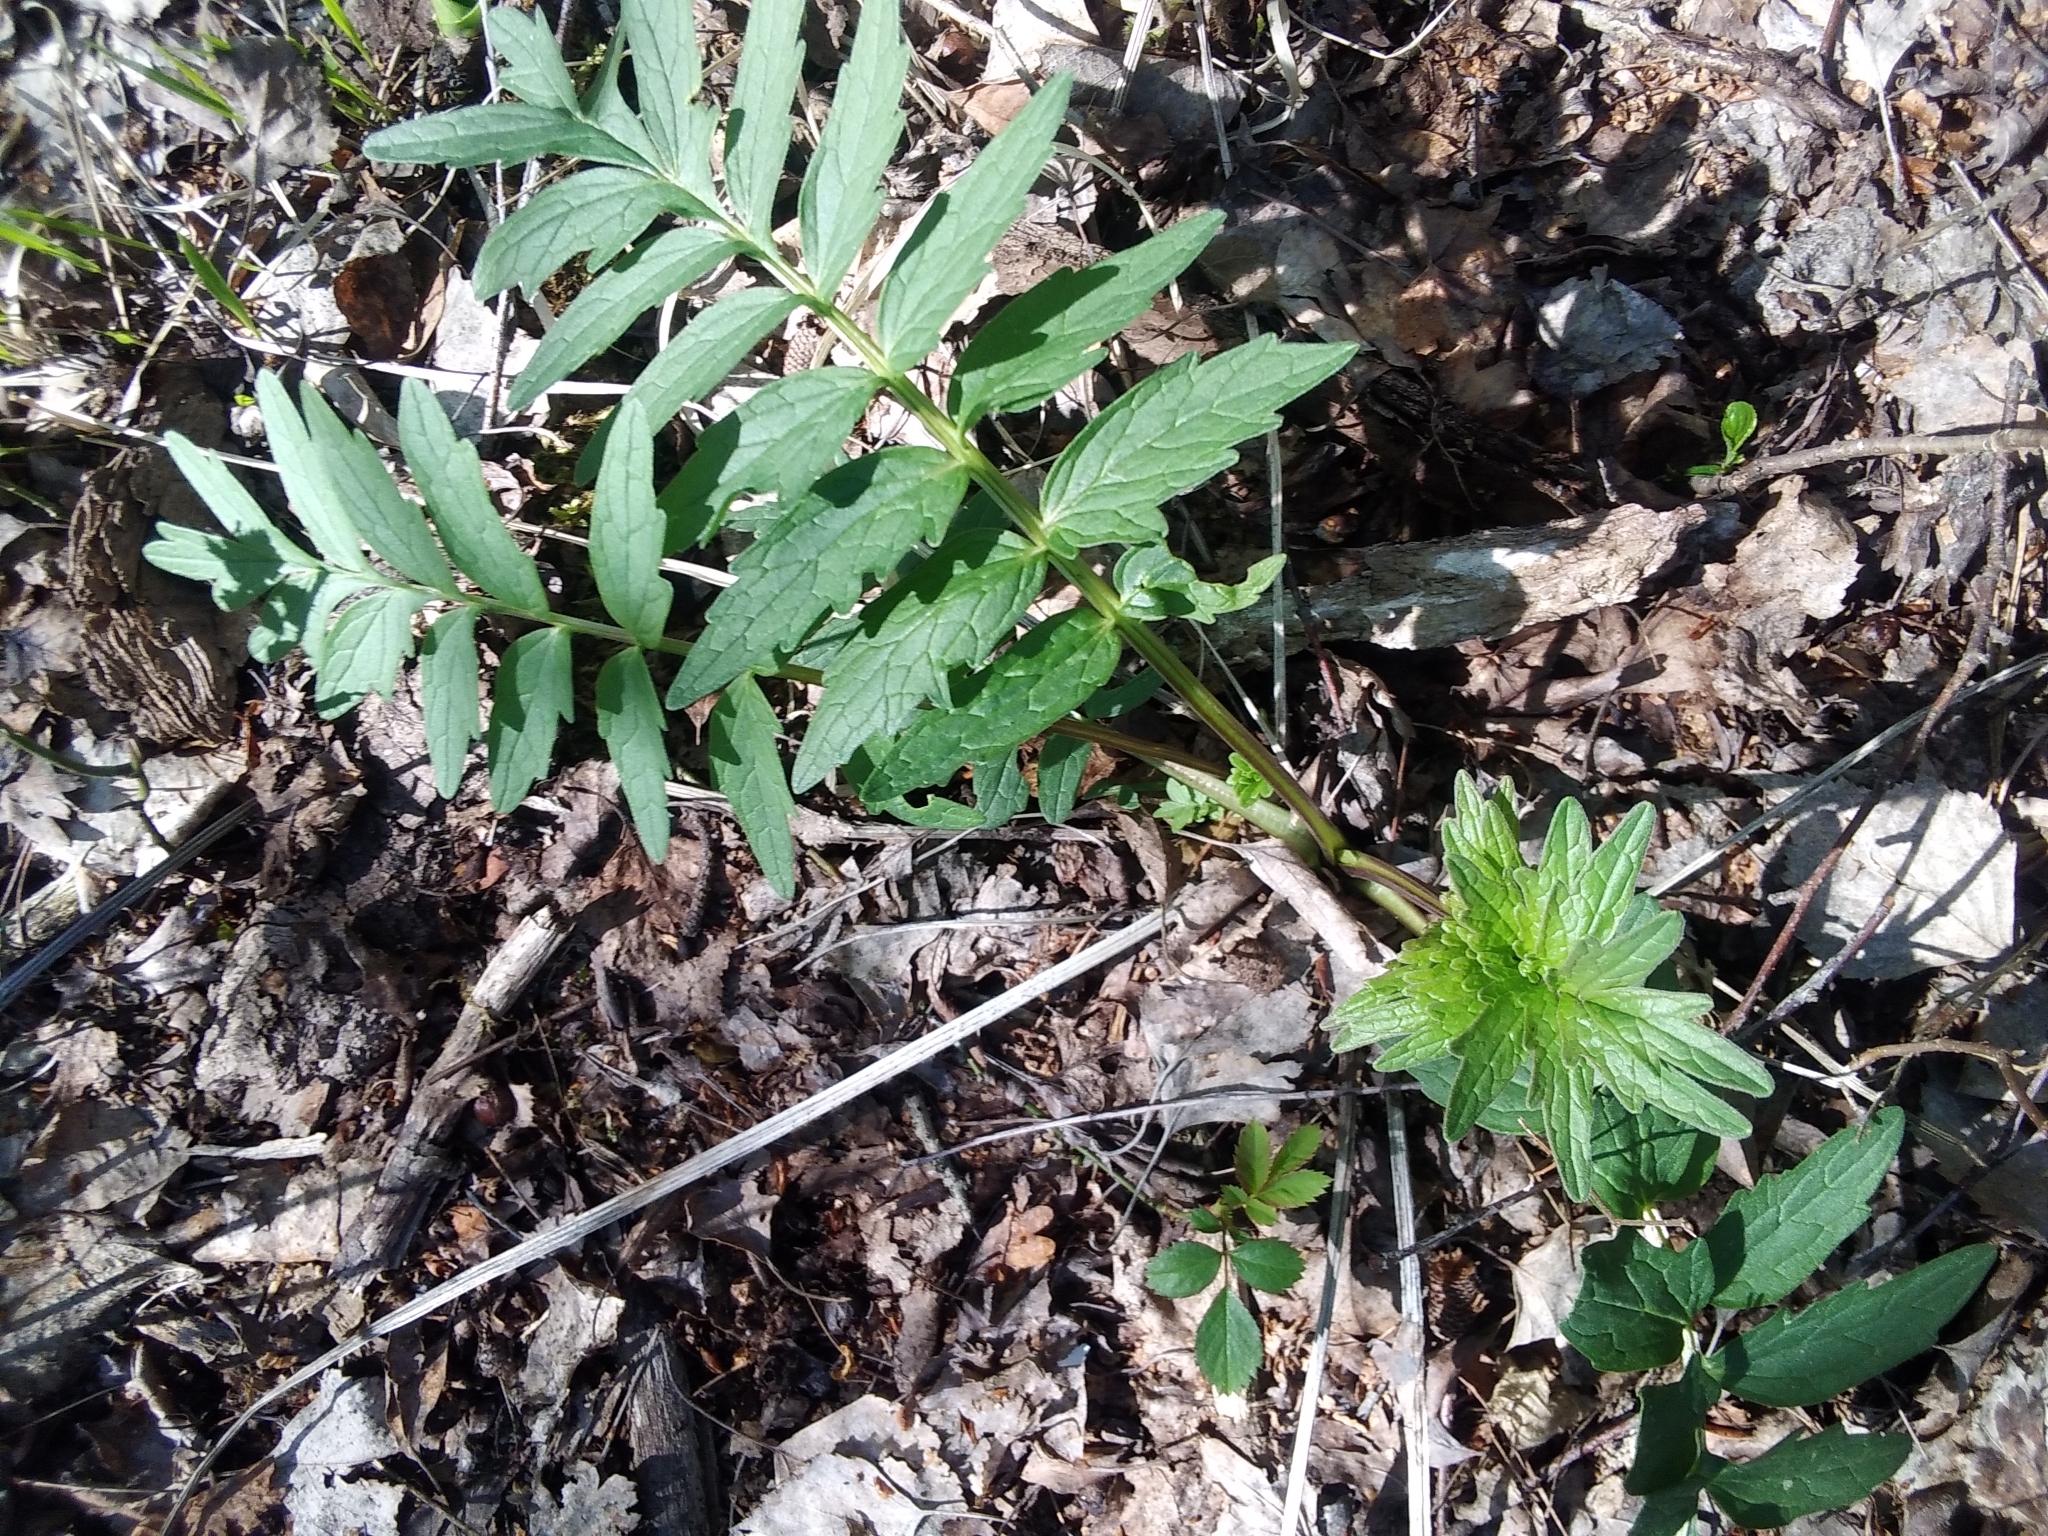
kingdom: Plantae
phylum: Tracheophyta
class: Magnoliopsida
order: Dipsacales
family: Caprifoliaceae
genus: Valeriana
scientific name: Valeriana officinalis
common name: Common valerian
